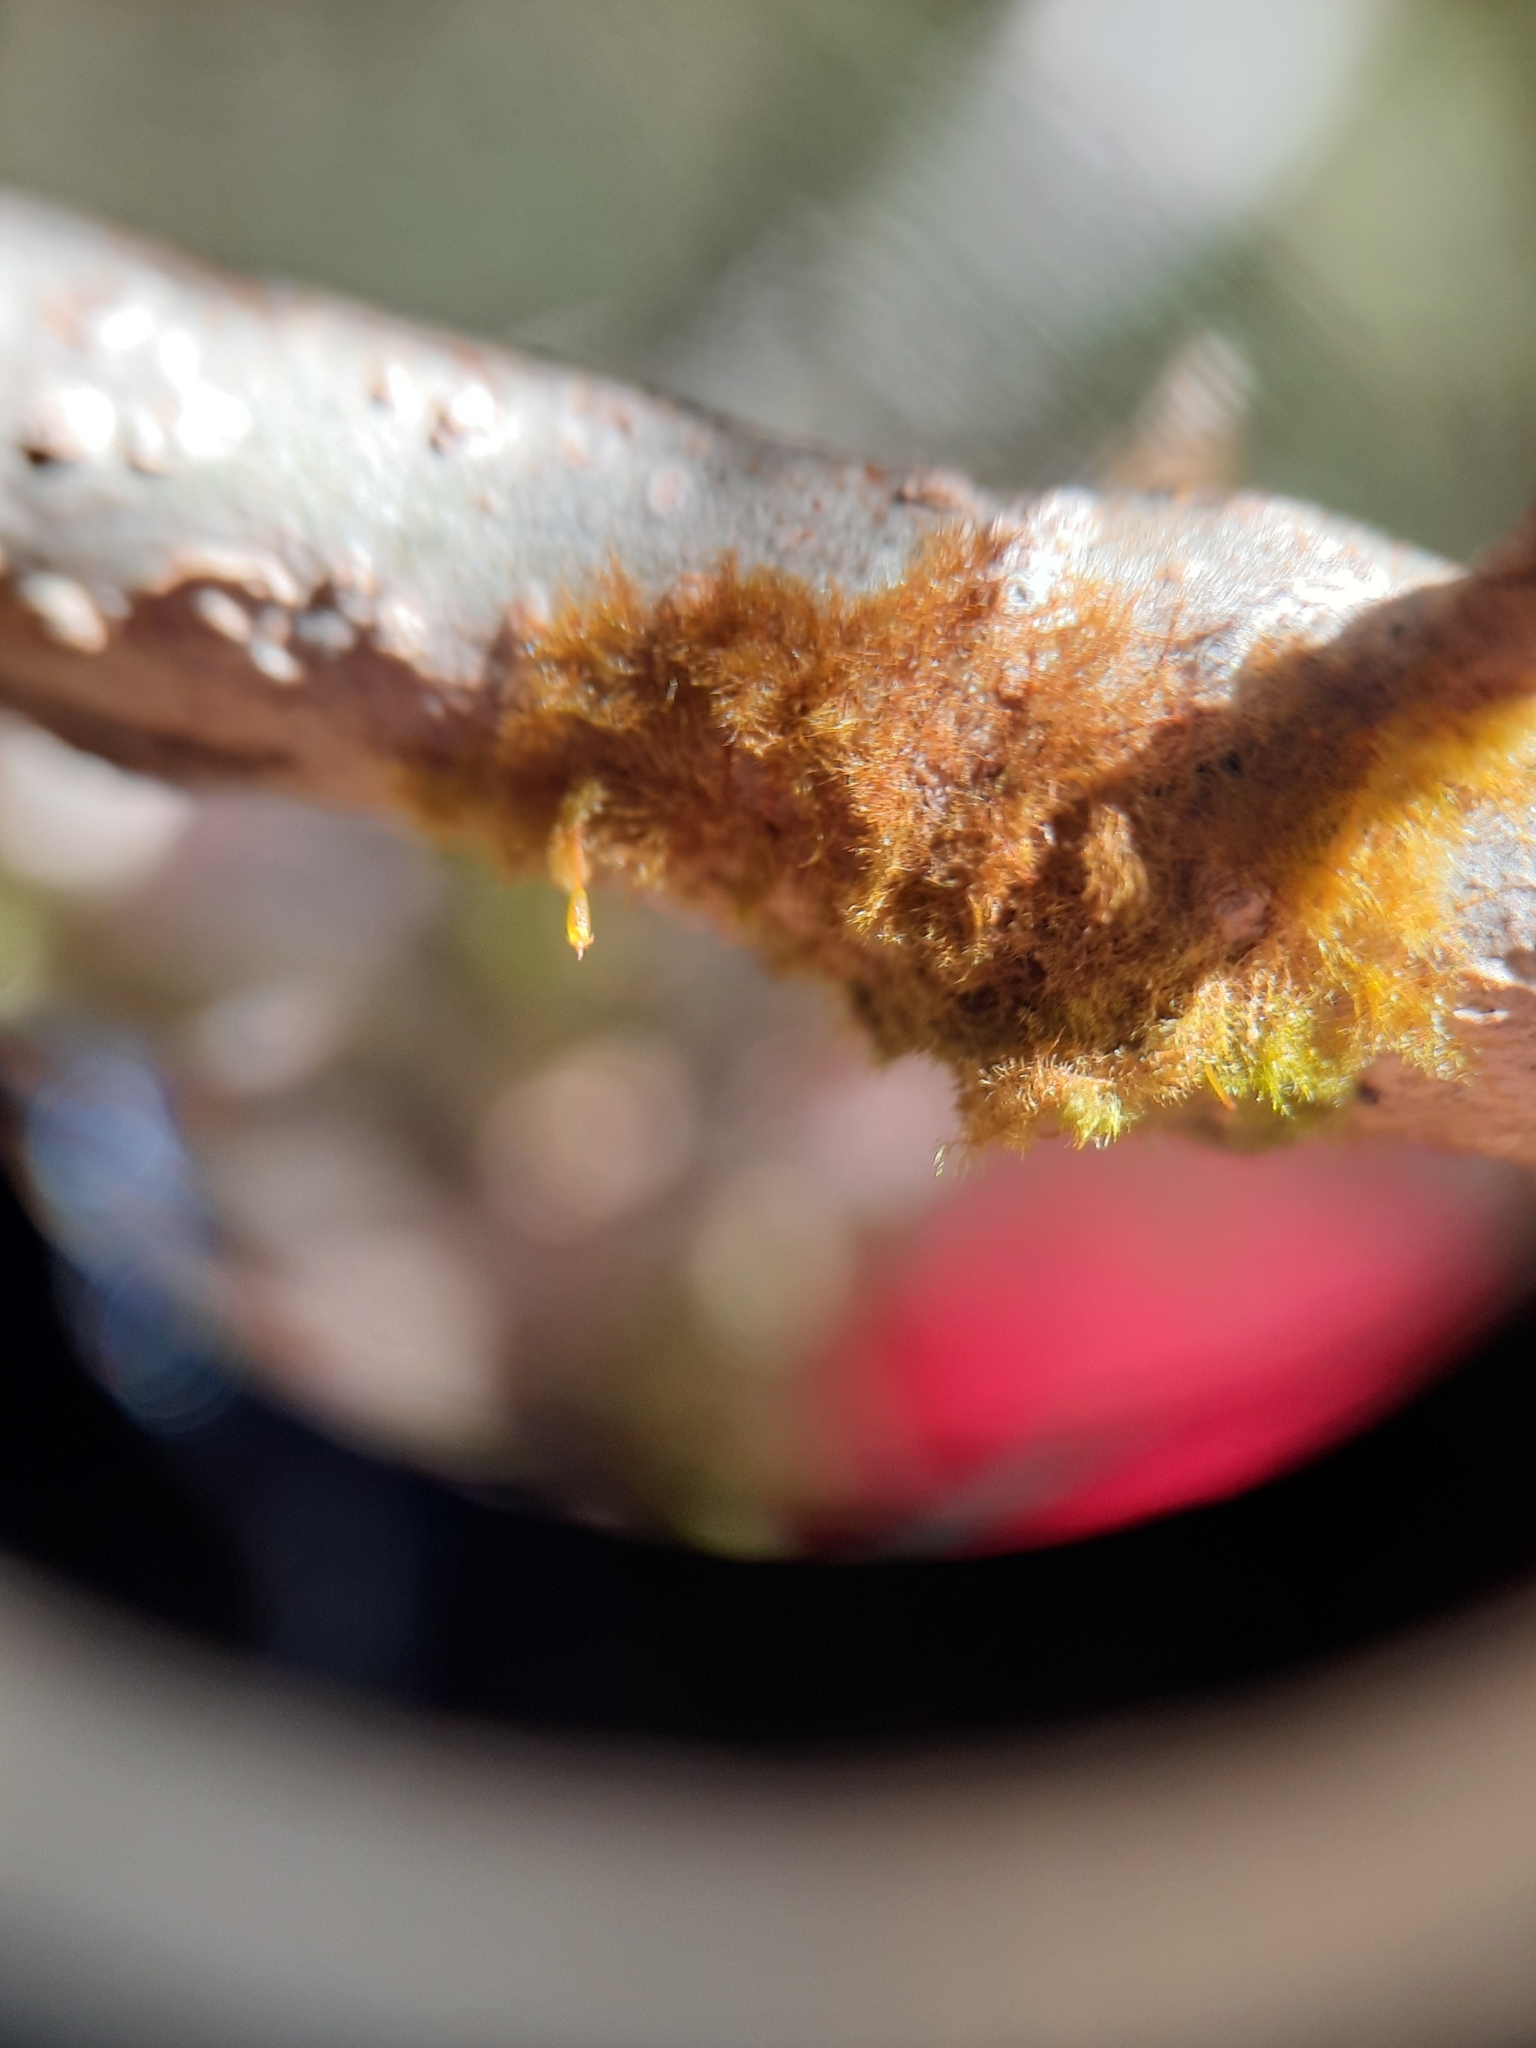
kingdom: Plantae
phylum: Bryophyta
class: Bryopsida
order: Hookeriales
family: Daltoniaceae
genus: Ephemeropsis
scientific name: Ephemeropsis trentepohlioides
